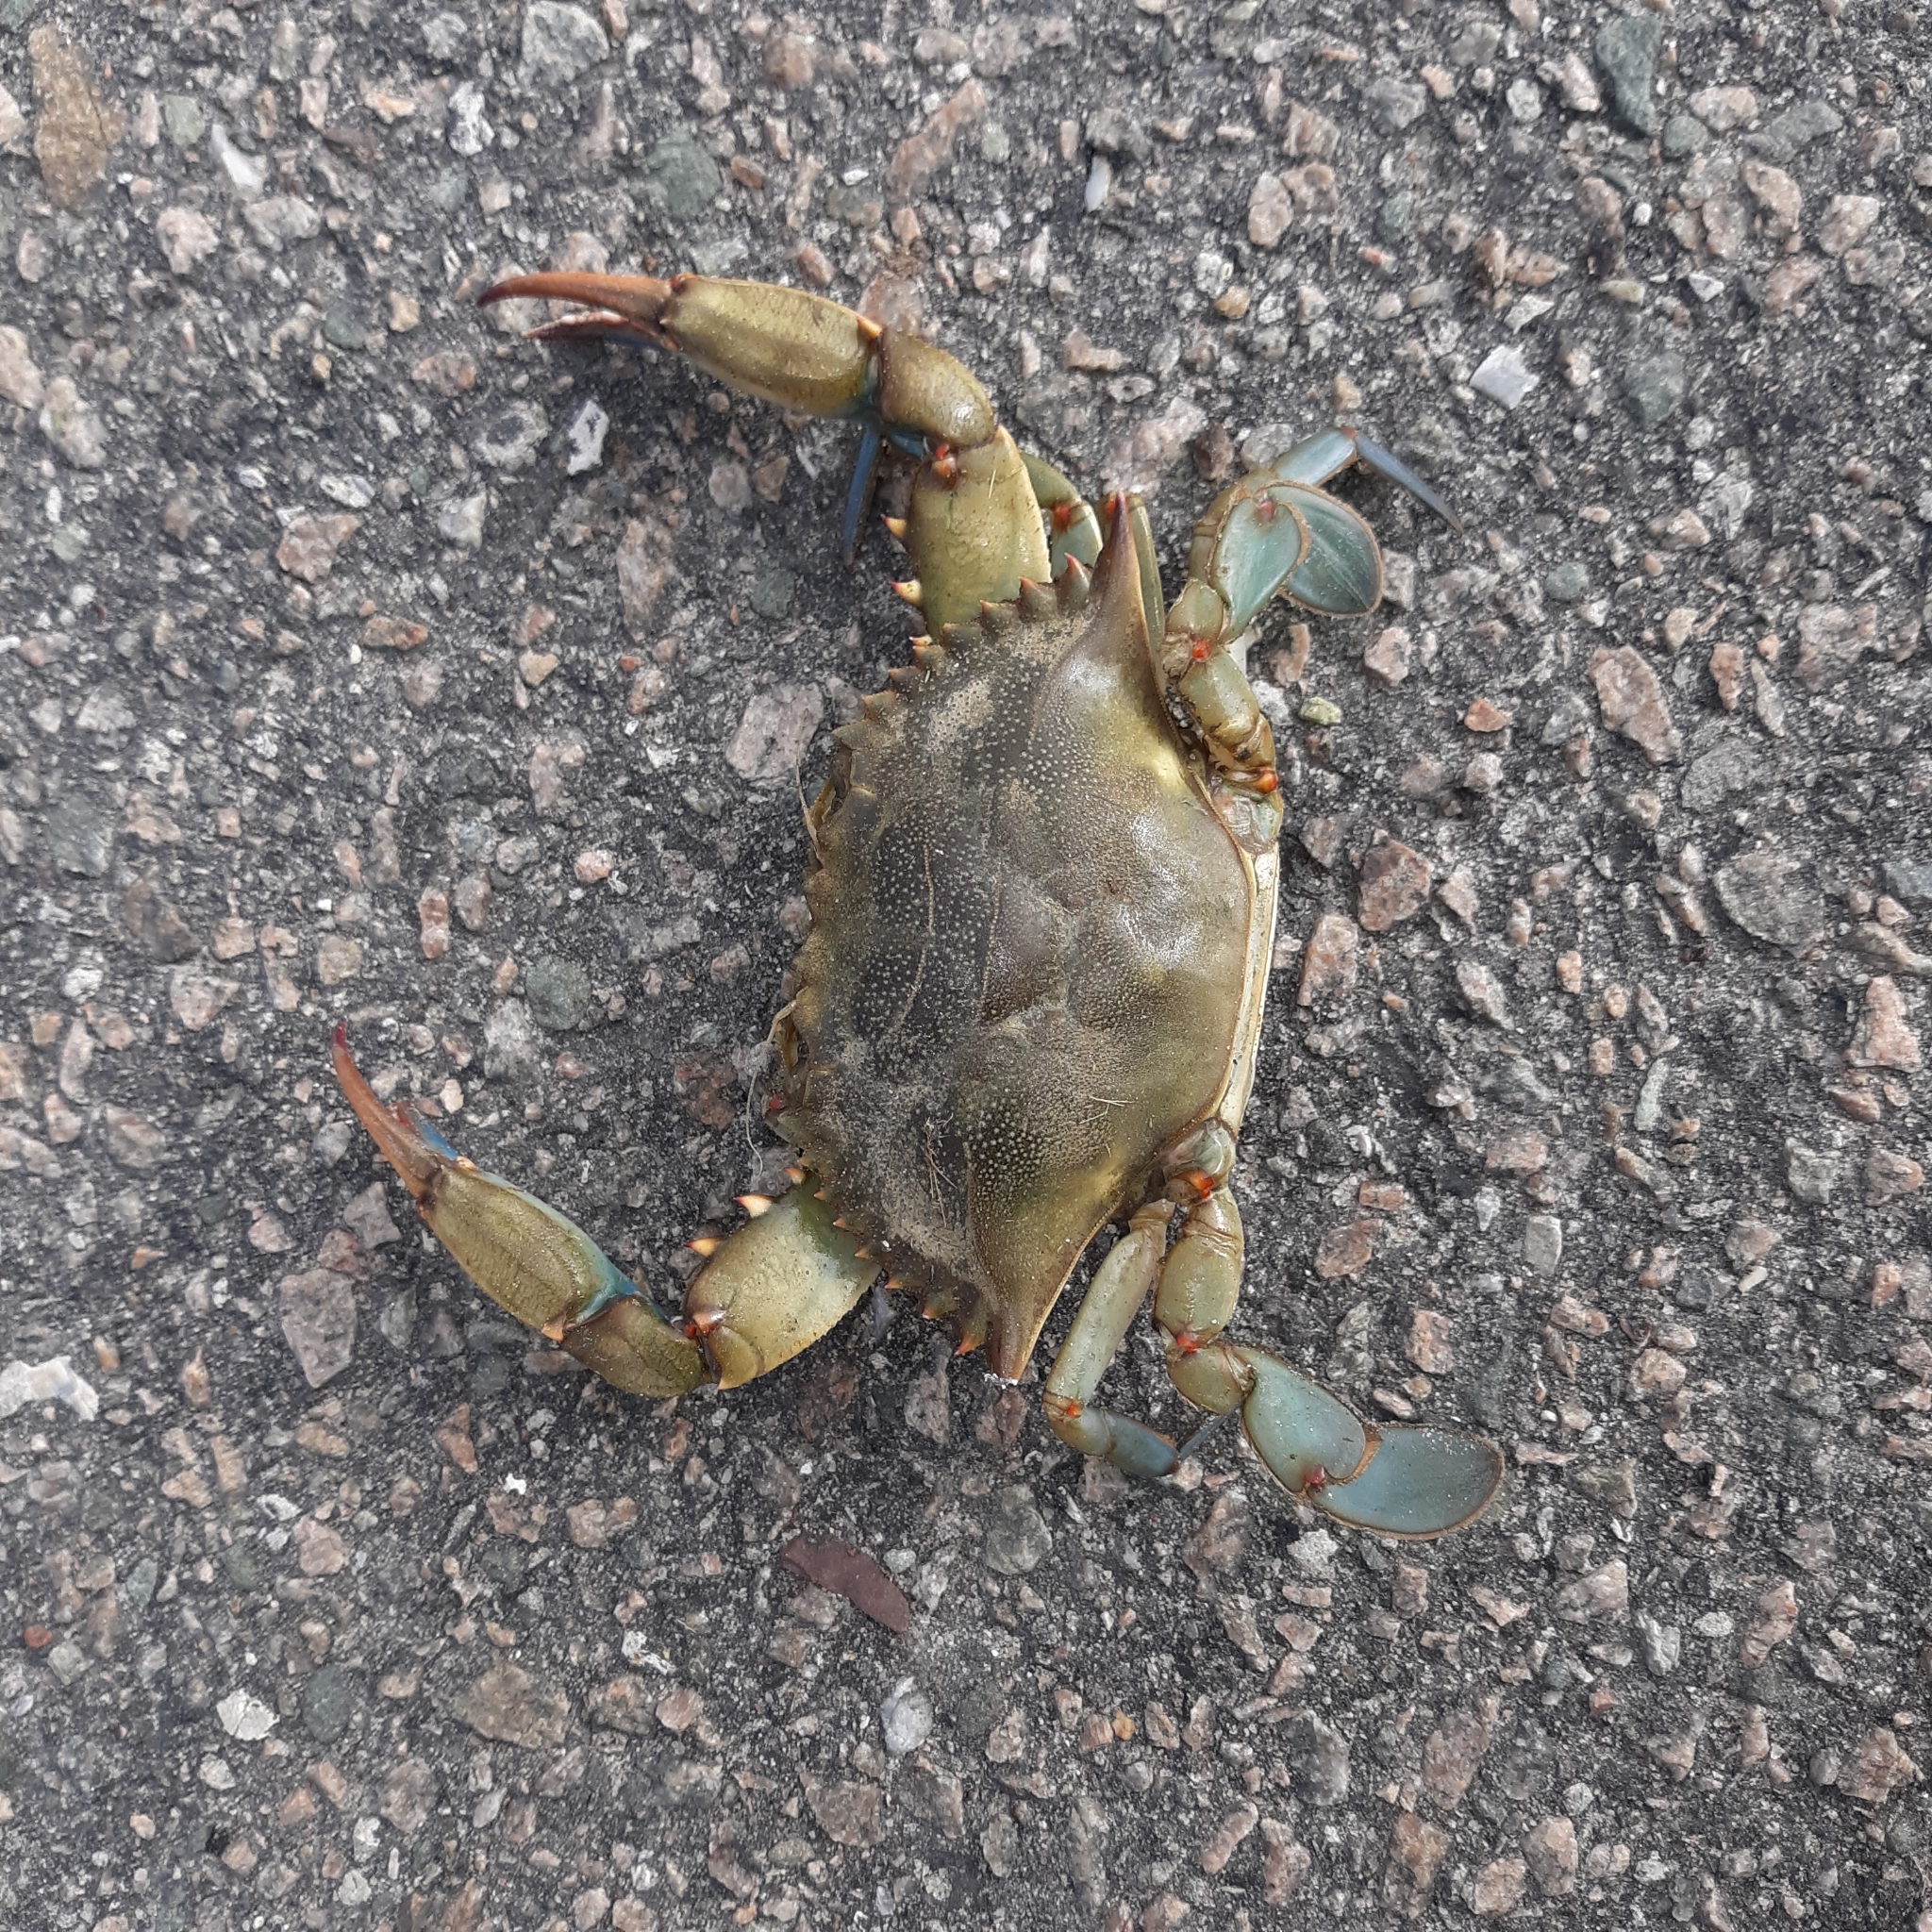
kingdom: Animalia
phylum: Arthropoda
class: Malacostraca
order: Decapoda
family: Portunidae
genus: Callinectes
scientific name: Callinectes sapidus
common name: Blue crab
